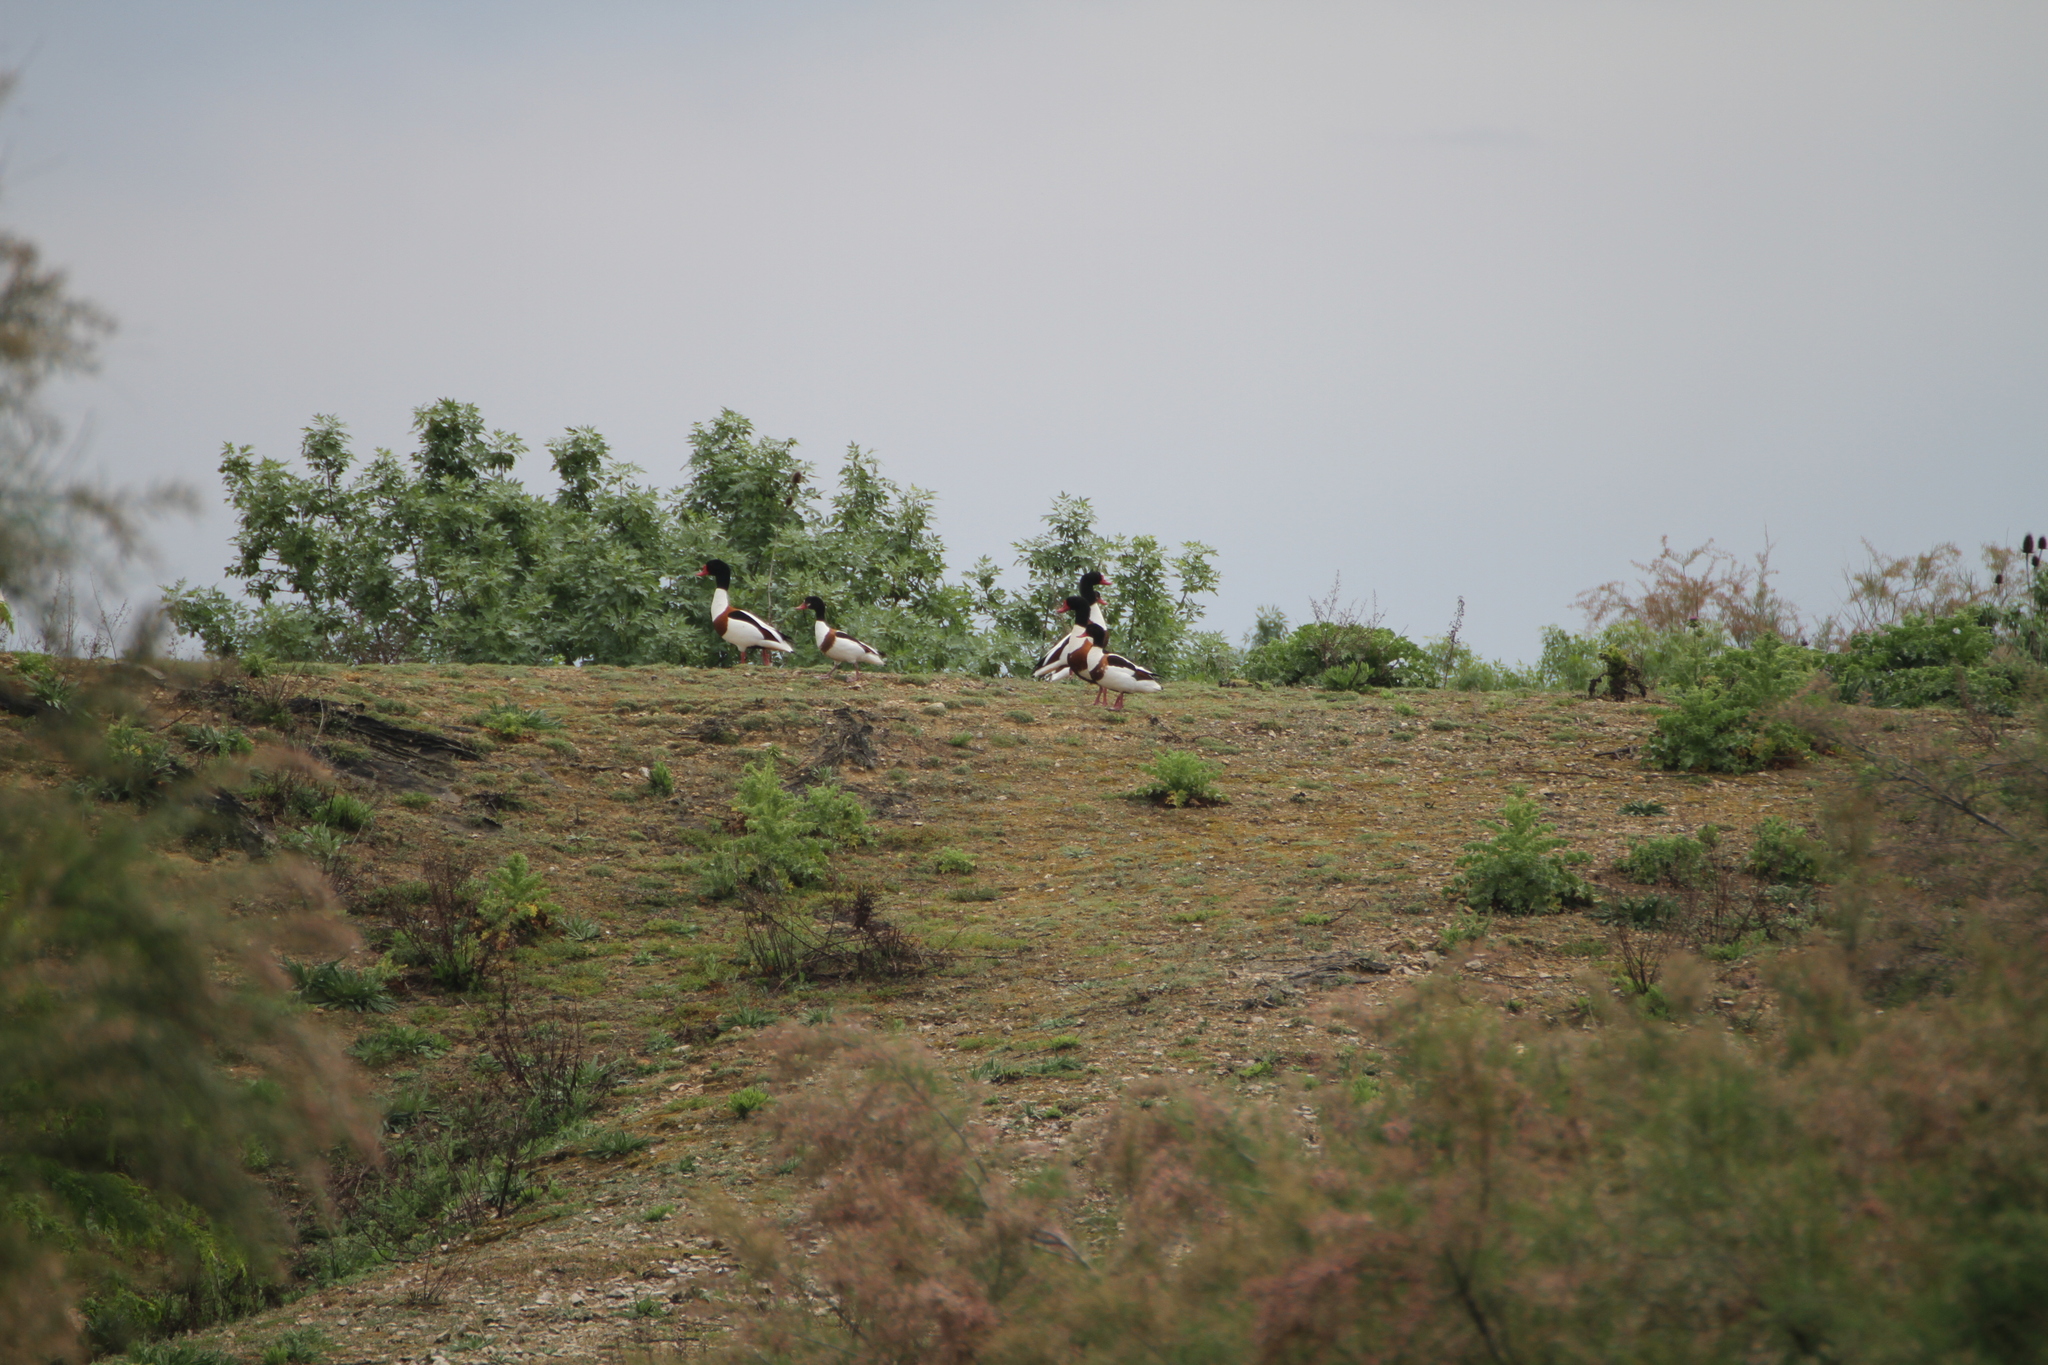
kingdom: Animalia
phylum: Chordata
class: Aves
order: Anseriformes
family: Anatidae
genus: Tadorna
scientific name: Tadorna tadorna
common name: Common shelduck
